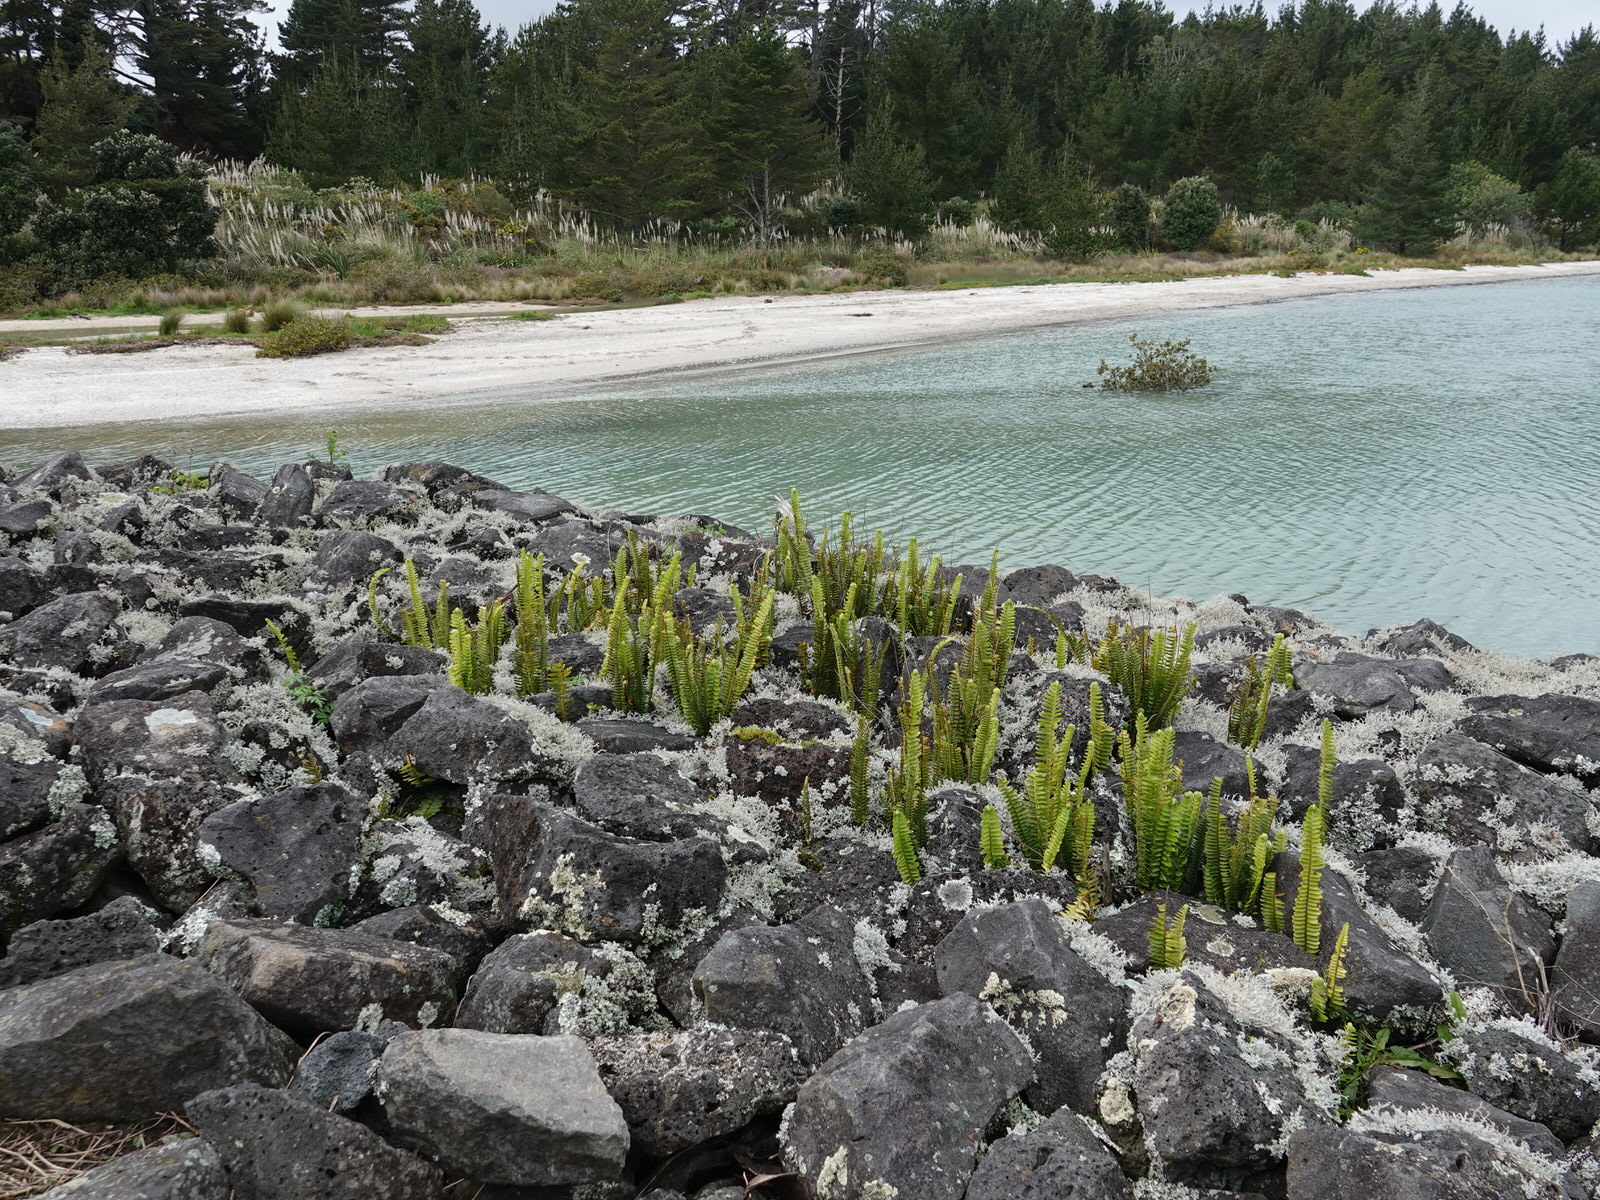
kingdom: Plantae
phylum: Tracheophyta
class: Polypodiopsida
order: Polypodiales
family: Nephrolepidaceae
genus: Nephrolepis
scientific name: Nephrolepis cordifolia
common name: Narrow swordfern
